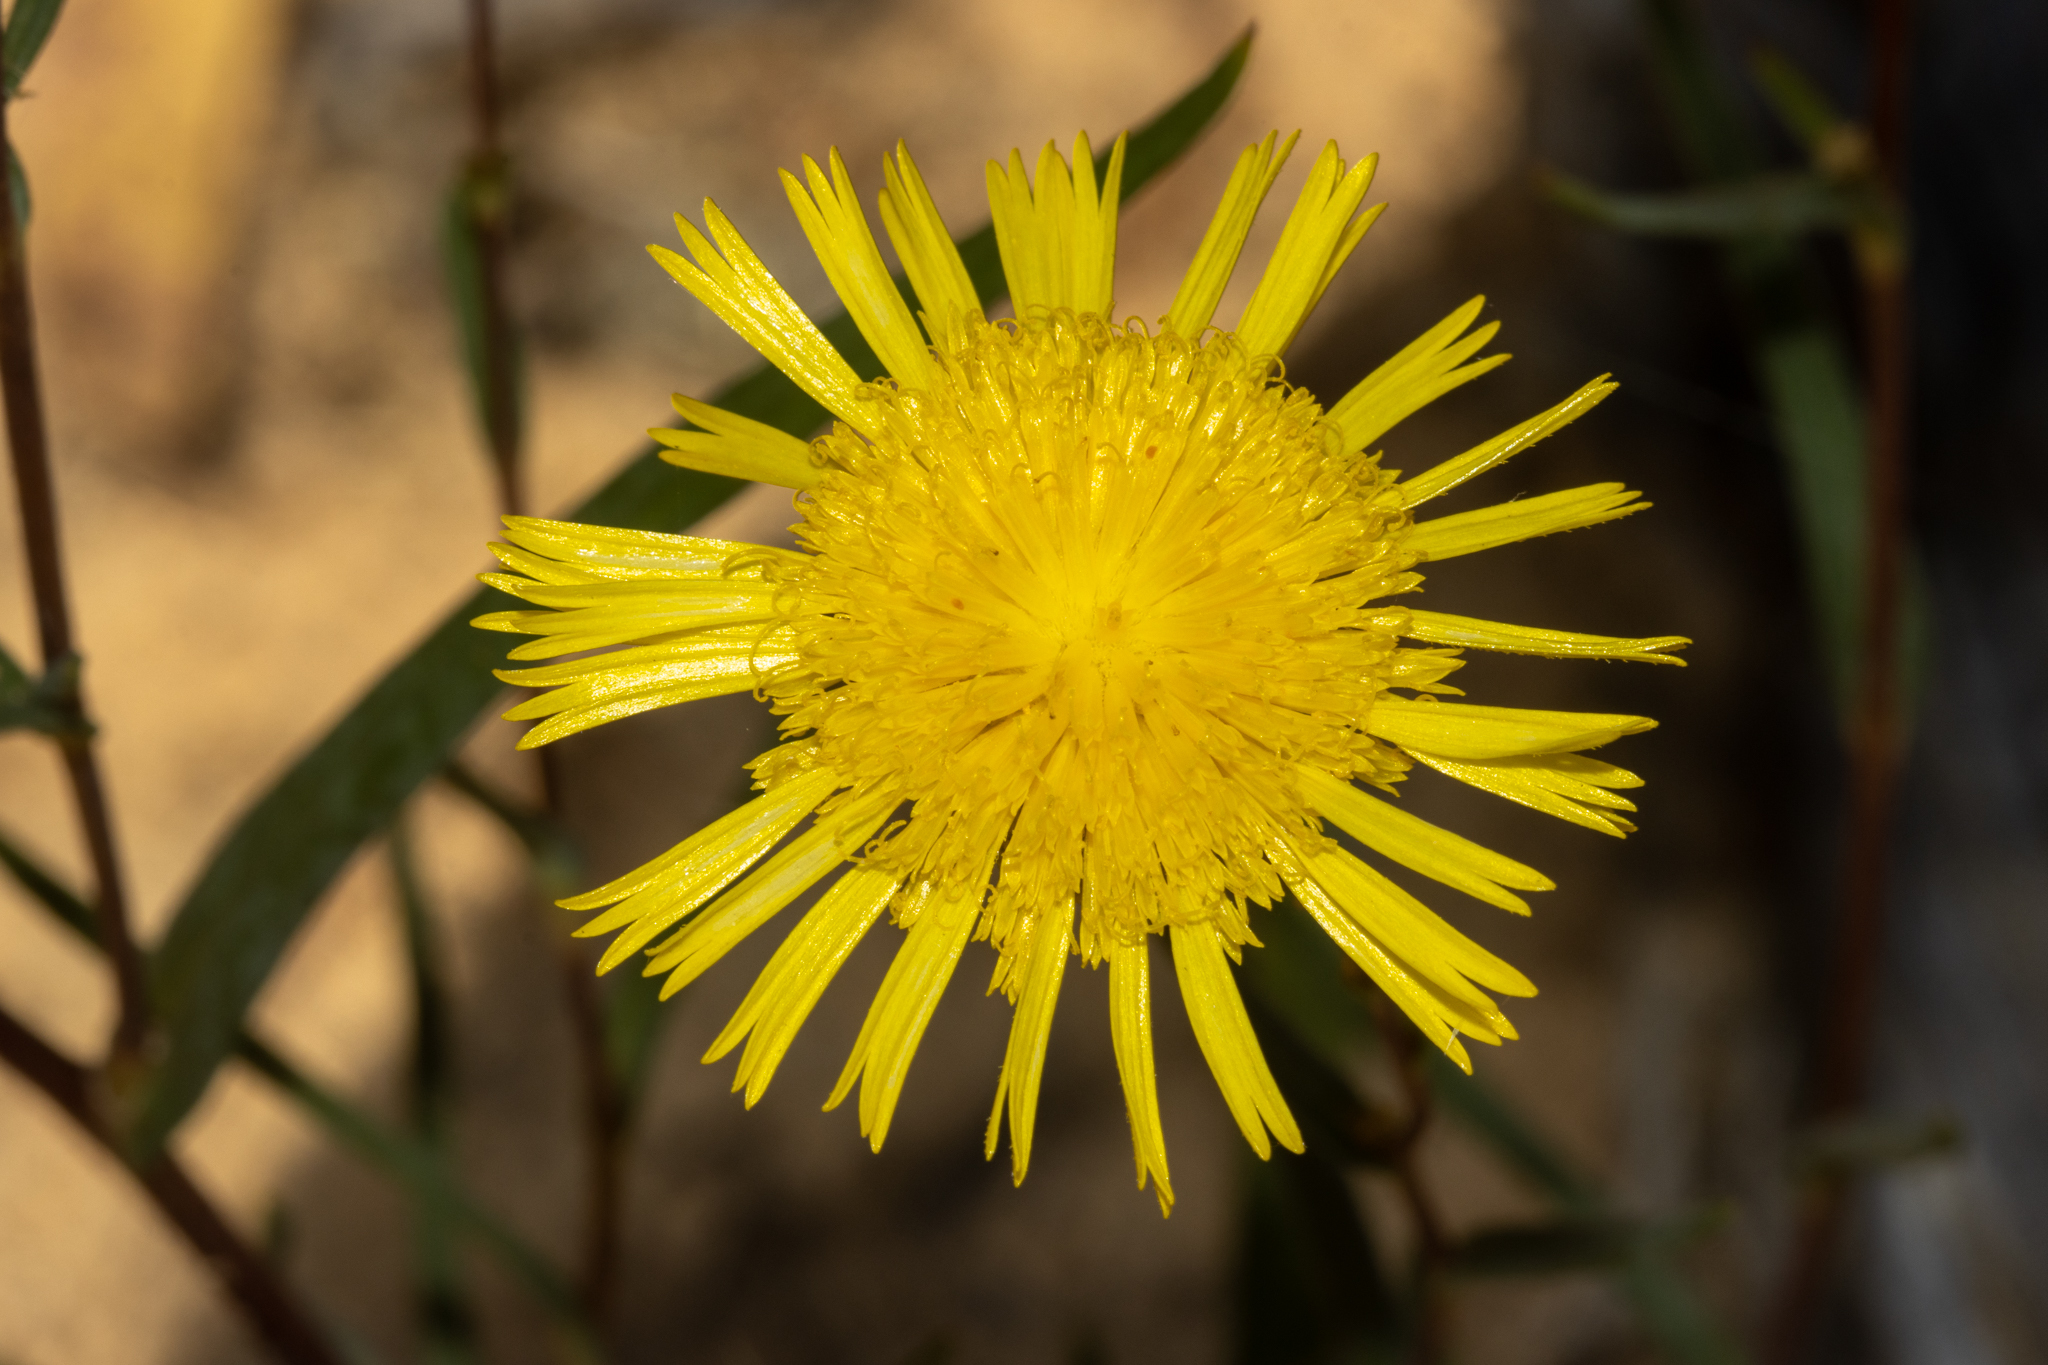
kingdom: Plantae
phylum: Tracheophyta
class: Magnoliopsida
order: Asterales
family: Asteraceae
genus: Podolepis
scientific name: Podolepis rugata
